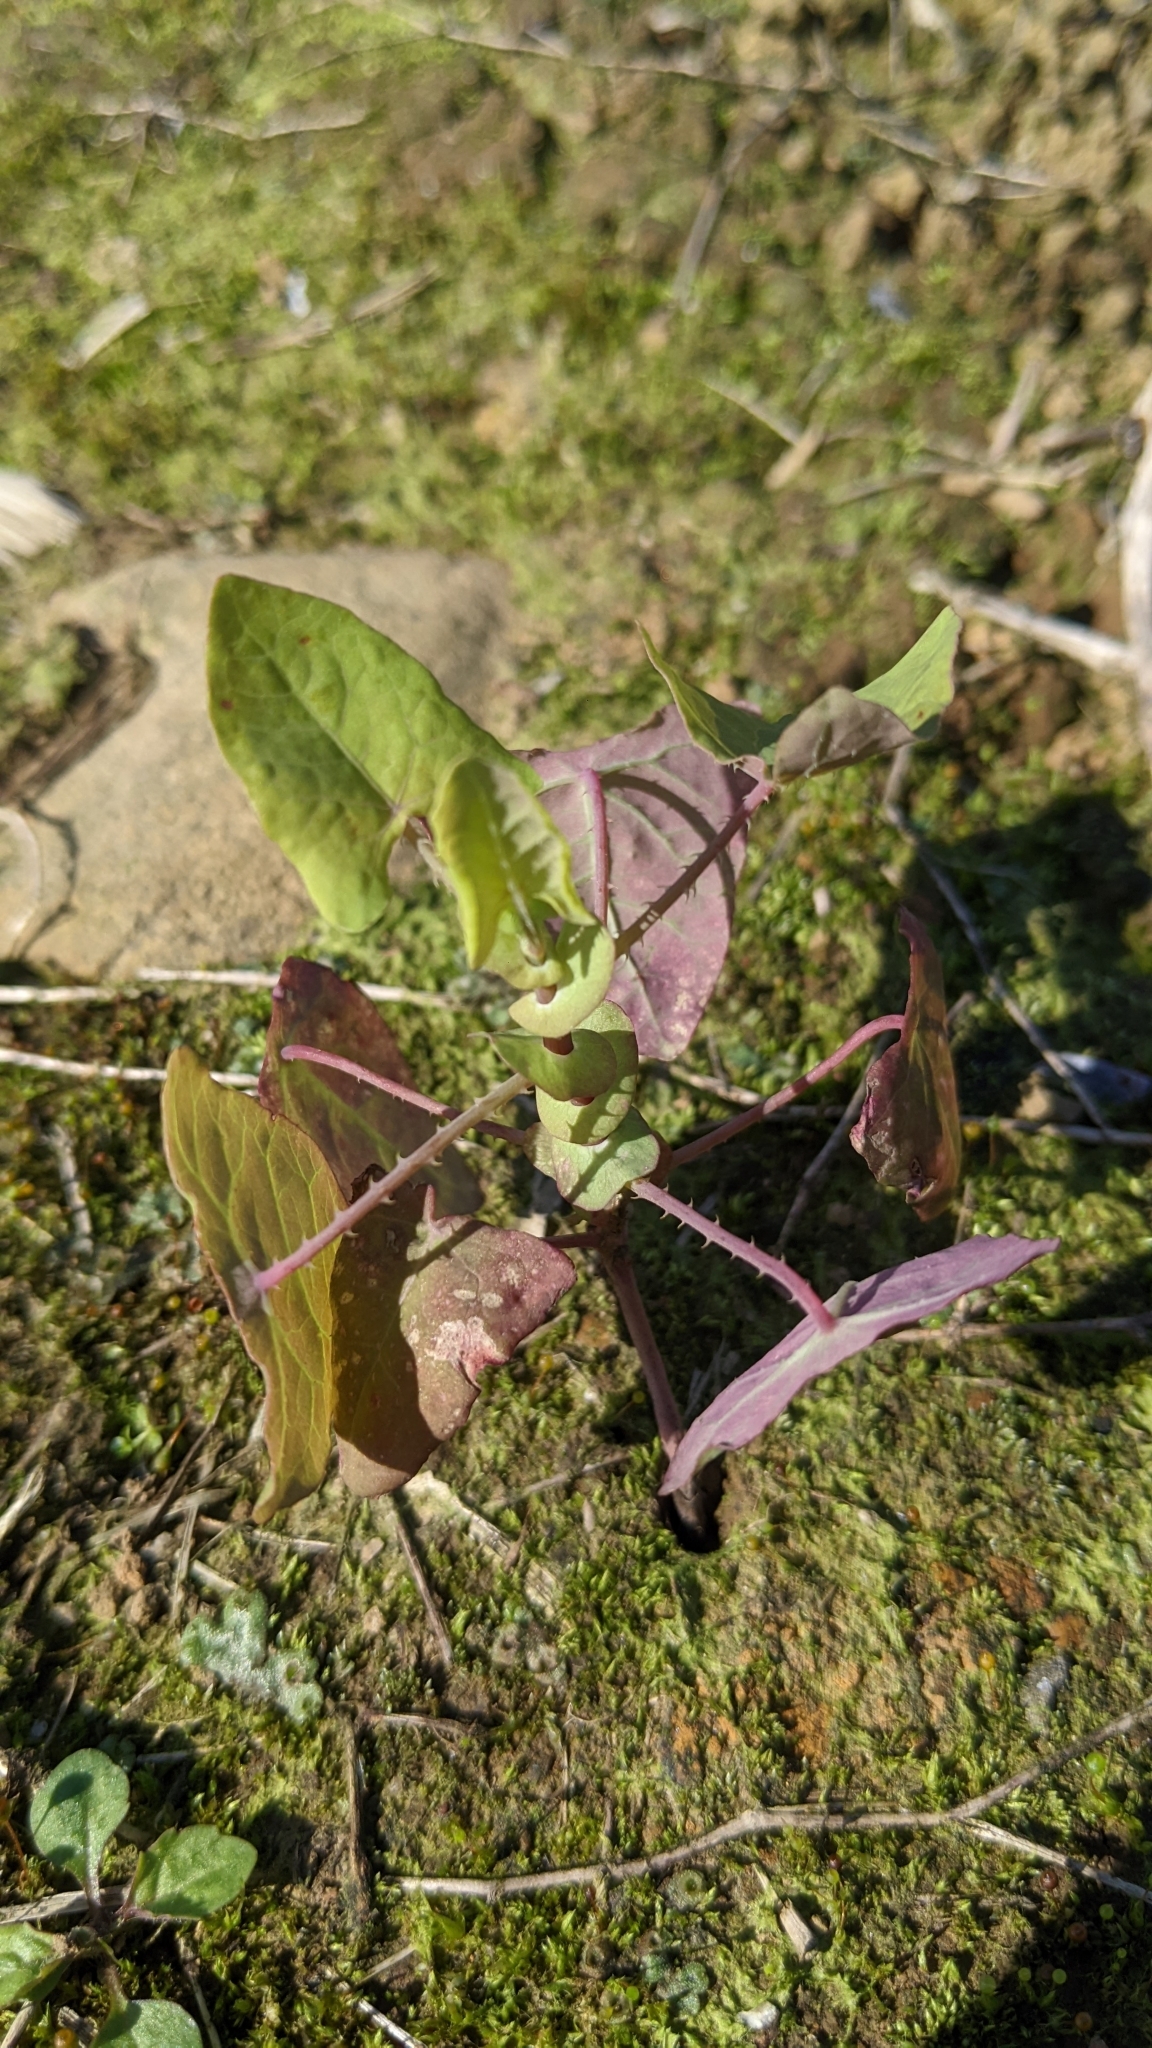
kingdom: Plantae
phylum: Tracheophyta
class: Magnoliopsida
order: Caryophyllales
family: Polygonaceae
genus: Persicaria
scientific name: Persicaria perfoliata
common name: Asiatic tearthumb
